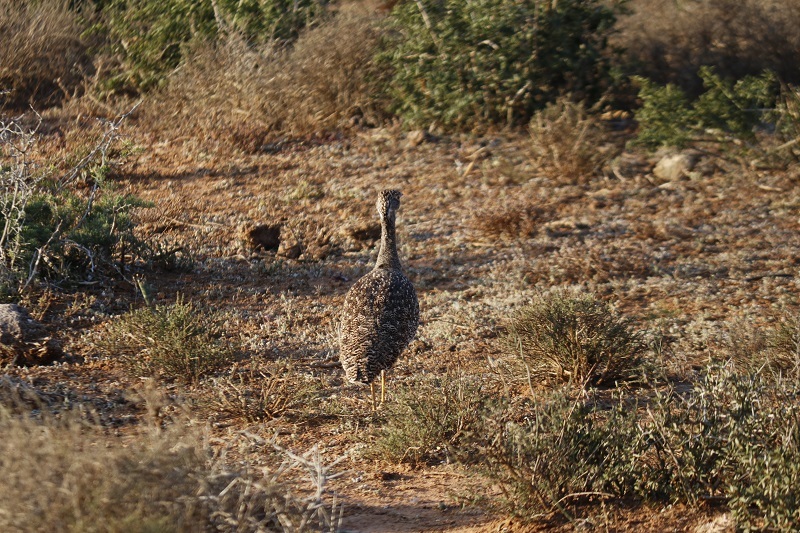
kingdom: Animalia
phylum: Chordata
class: Aves
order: Otidiformes
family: Otididae
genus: Afrotis
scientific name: Afrotis afra
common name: Southern black korhaan
